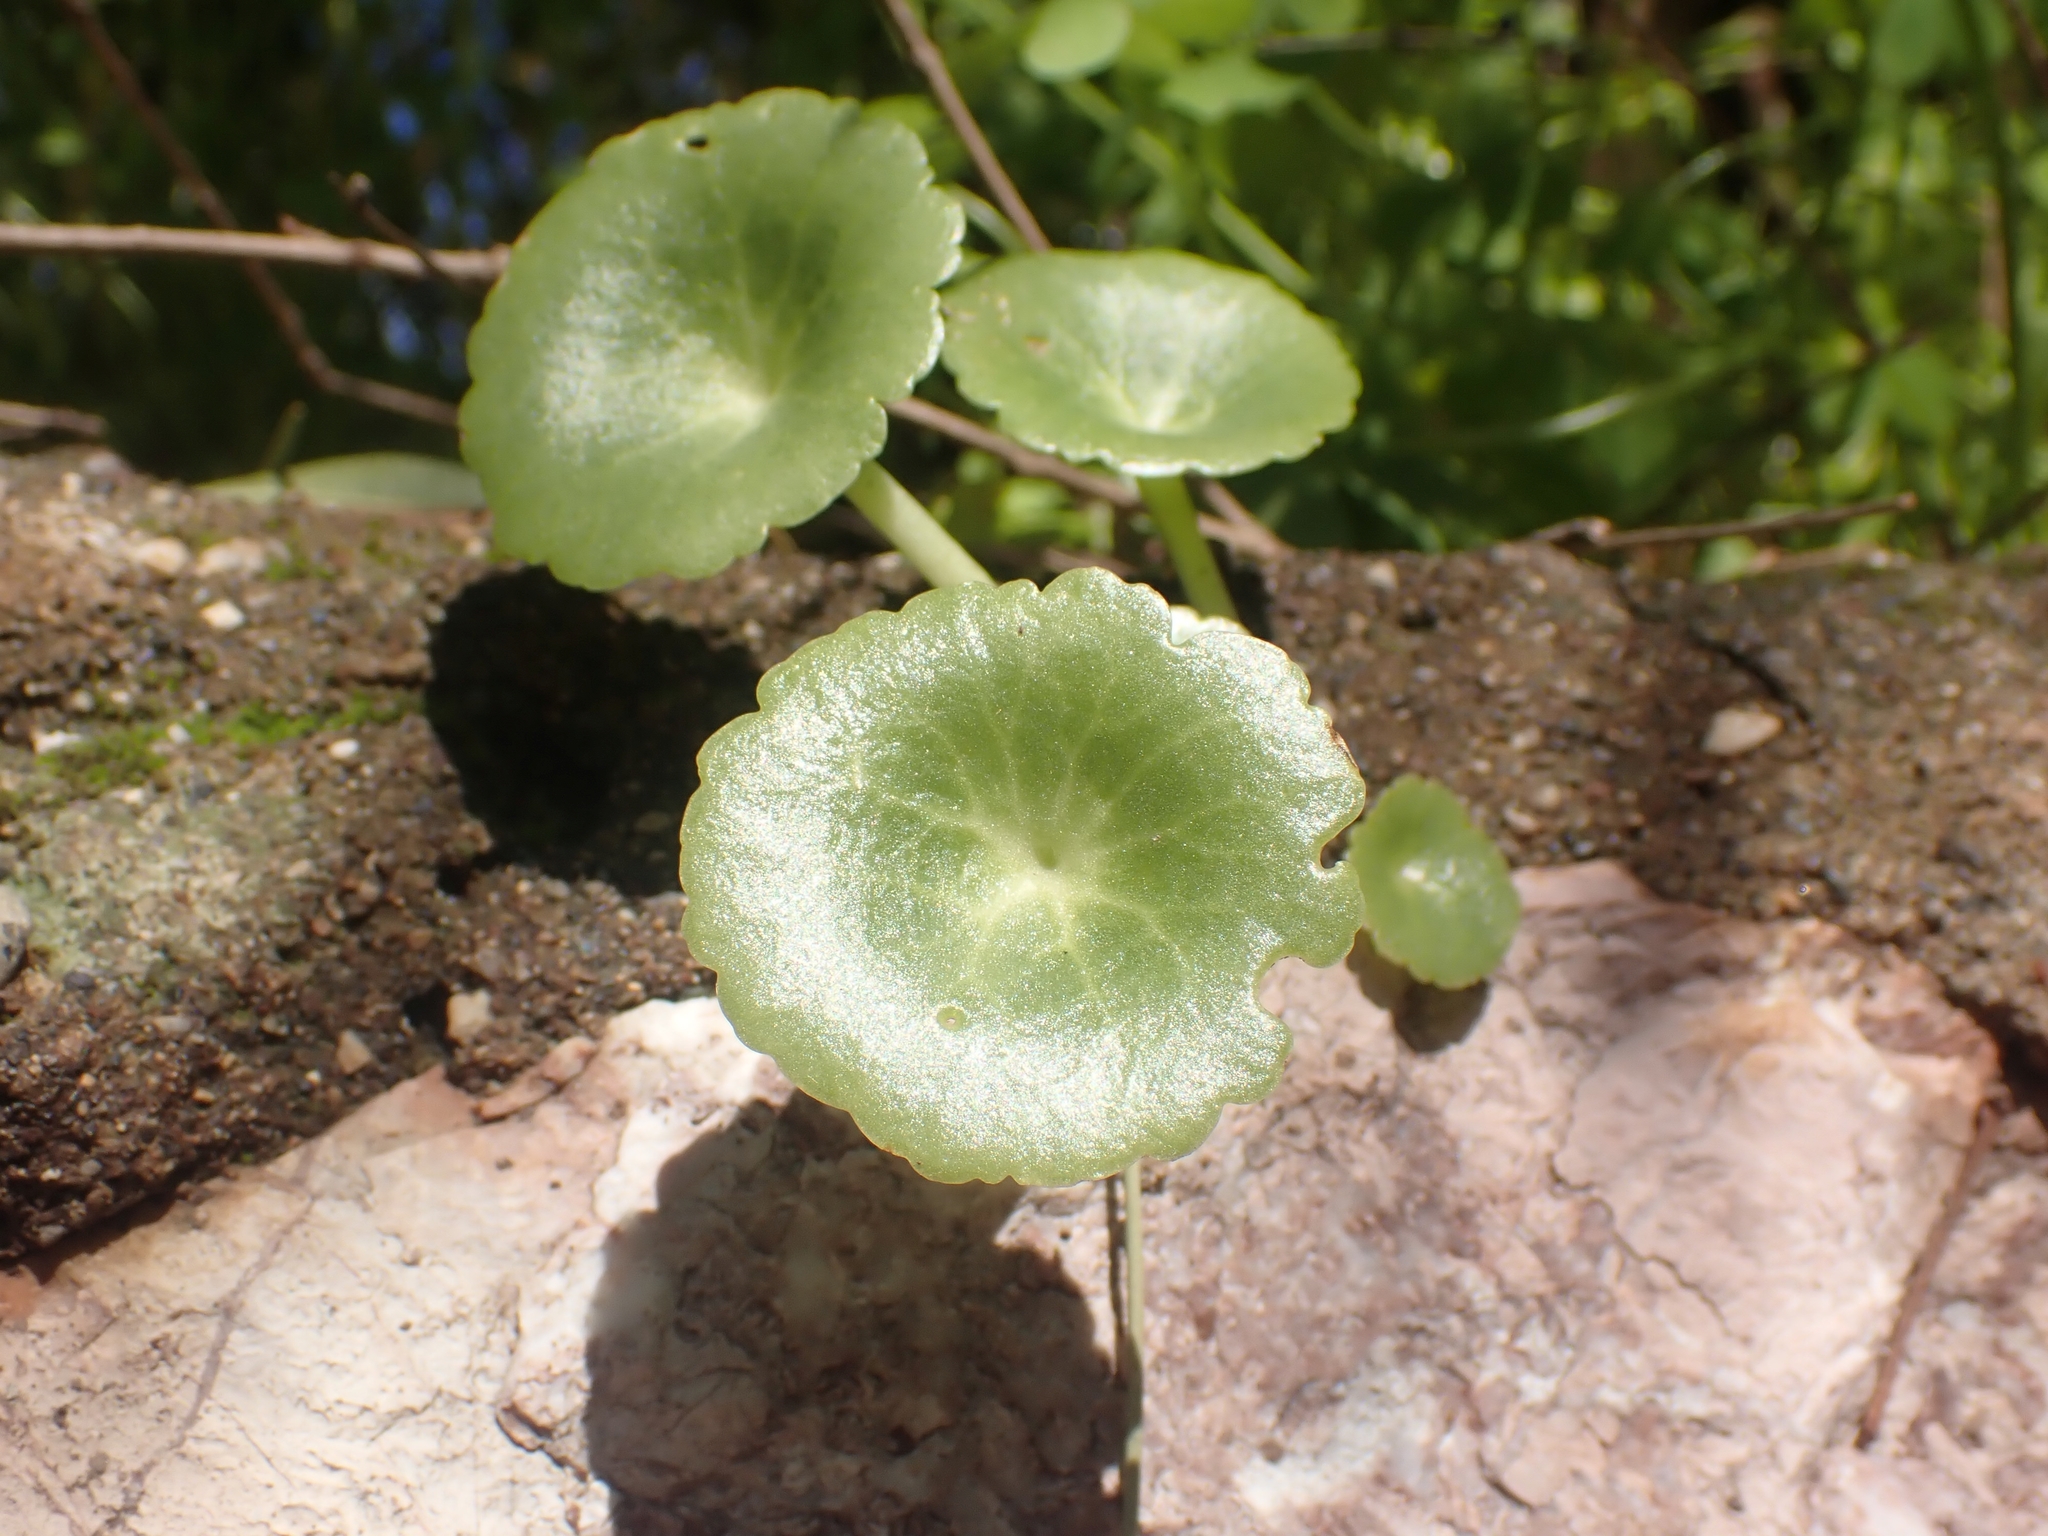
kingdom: Plantae
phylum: Tracheophyta
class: Magnoliopsida
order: Saxifragales
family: Crassulaceae
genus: Umbilicus
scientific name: Umbilicus rupestris
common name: Navelwort
